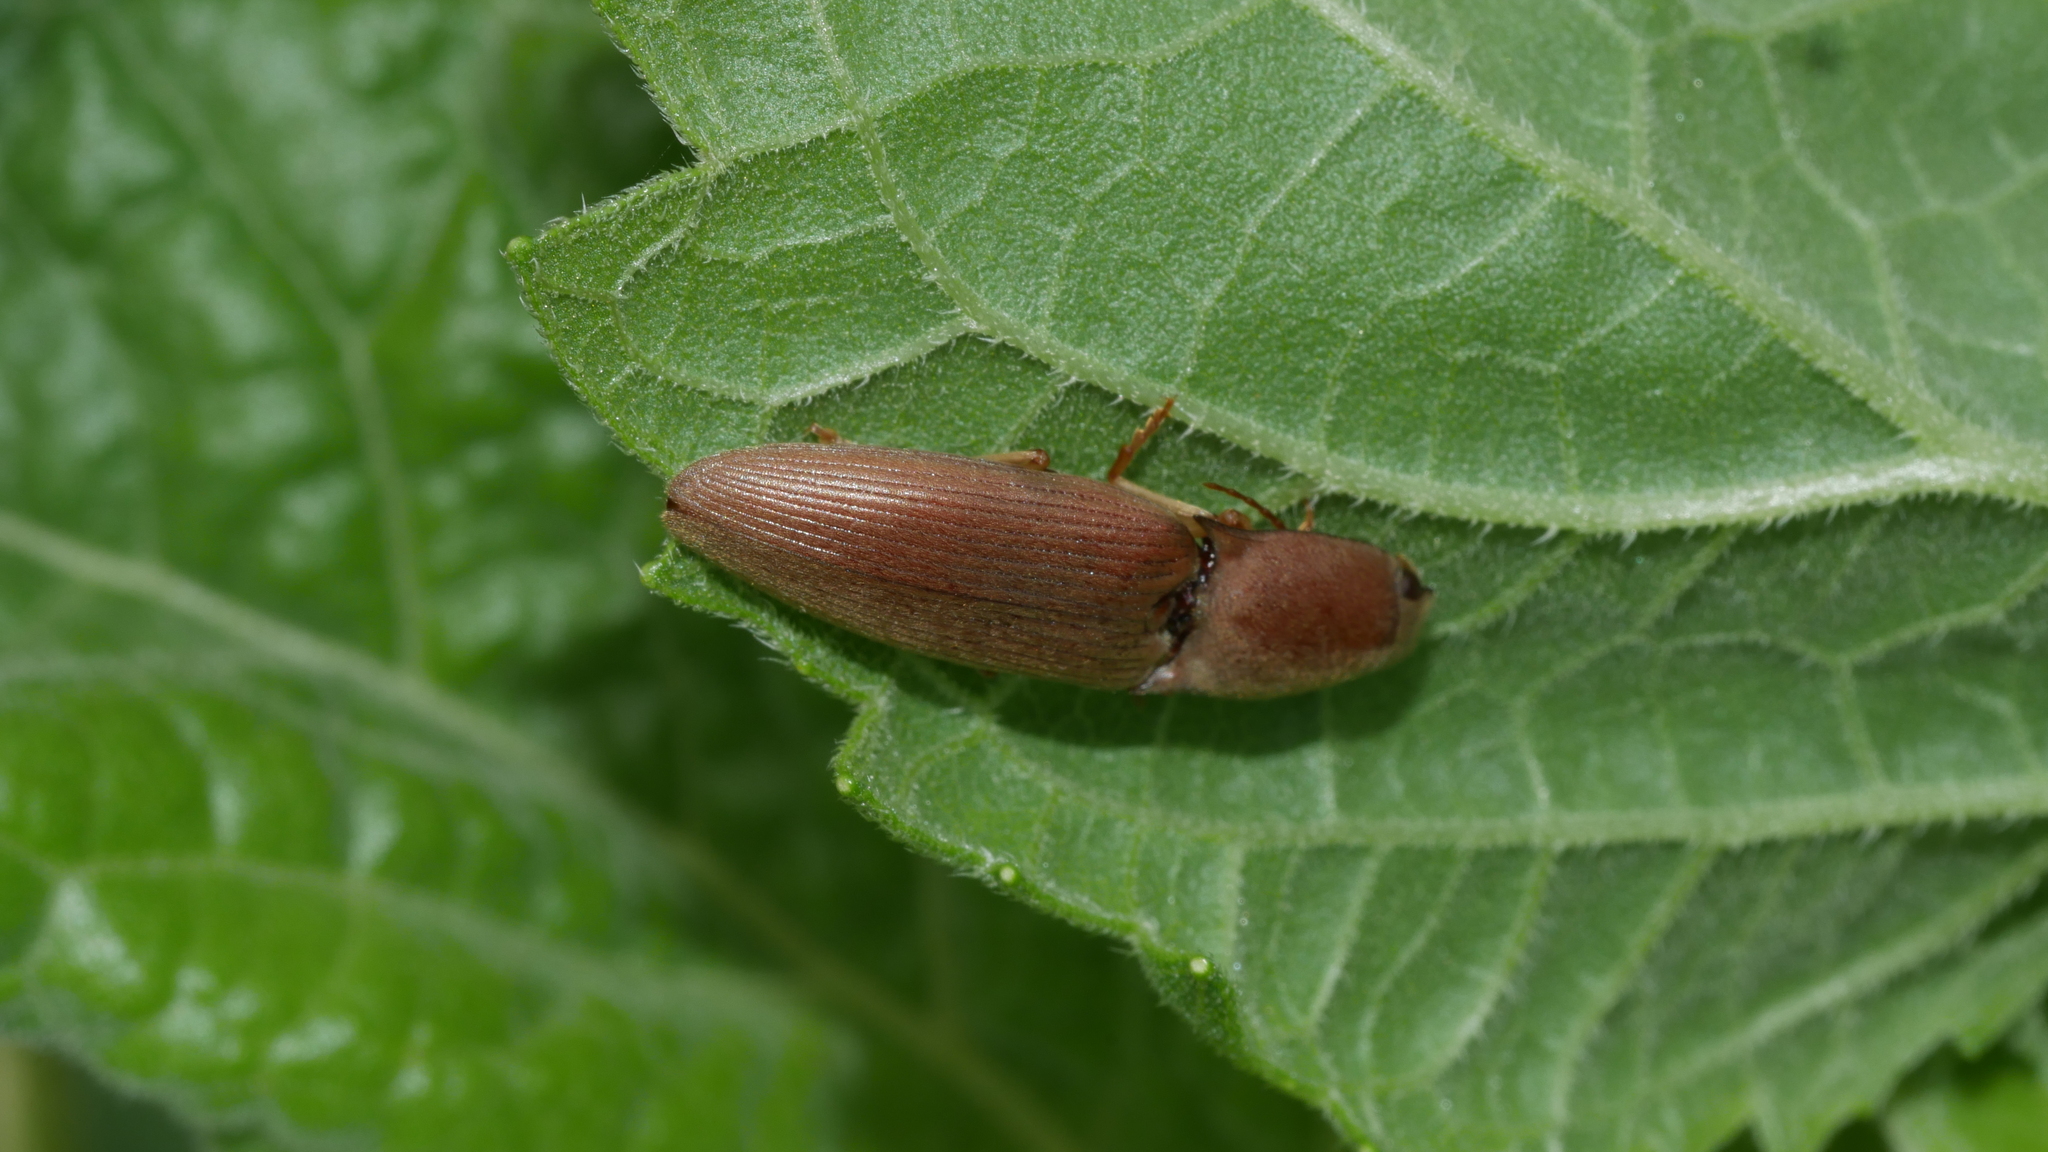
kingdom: Animalia
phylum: Arthropoda
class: Insecta
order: Coleoptera
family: Elateridae
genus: Monocrepidius
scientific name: Monocrepidius lividus
